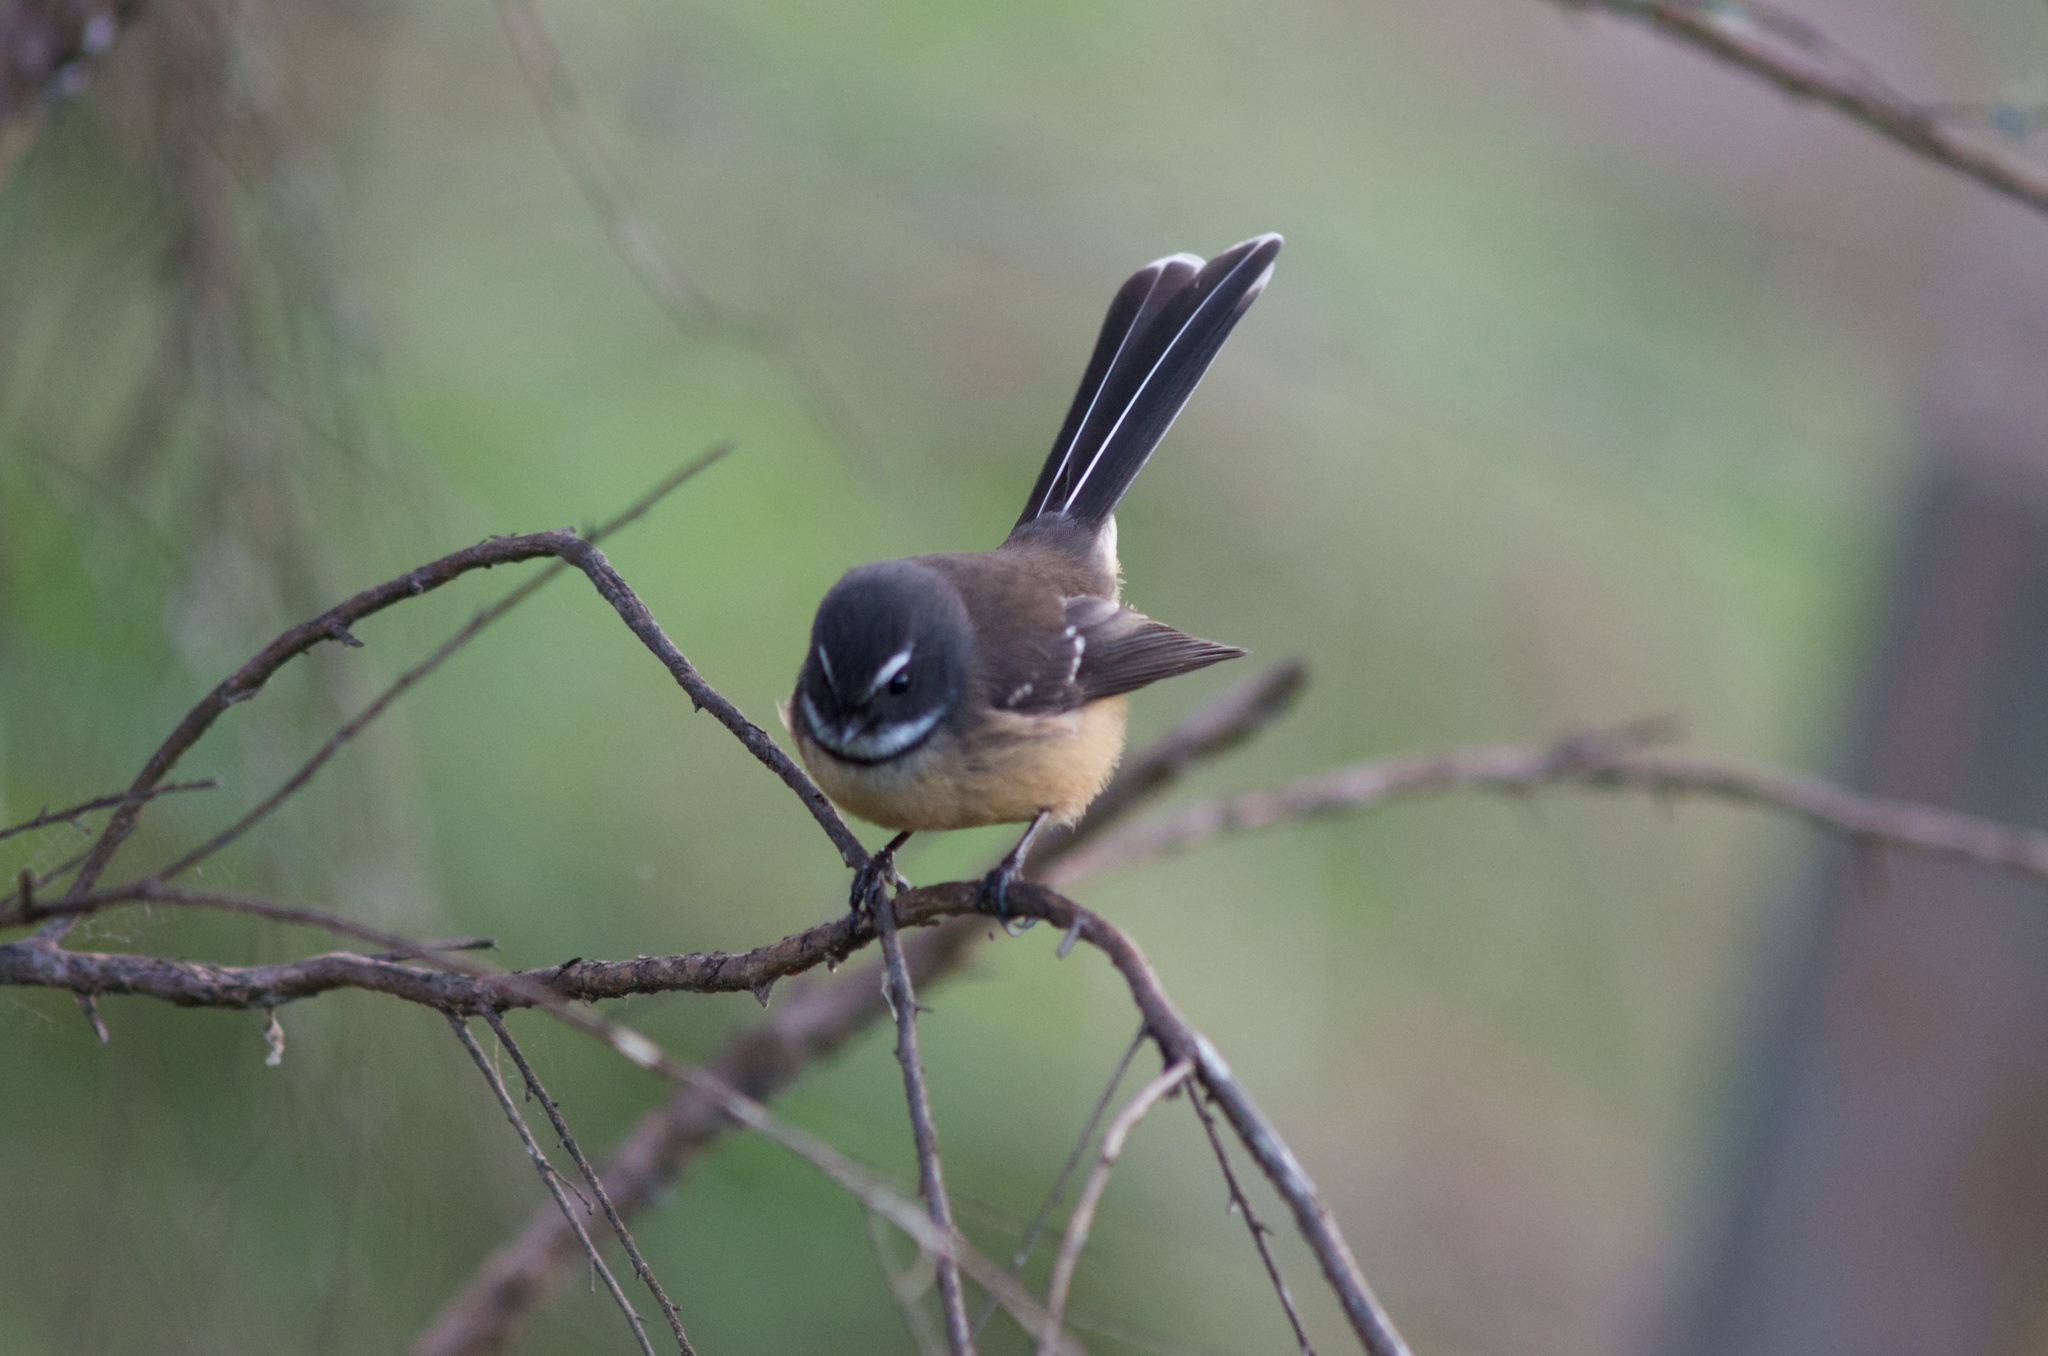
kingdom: Animalia
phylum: Chordata
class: Aves
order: Passeriformes
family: Rhipiduridae
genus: Rhipidura
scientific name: Rhipidura fuliginosa
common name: New zealand fantail
